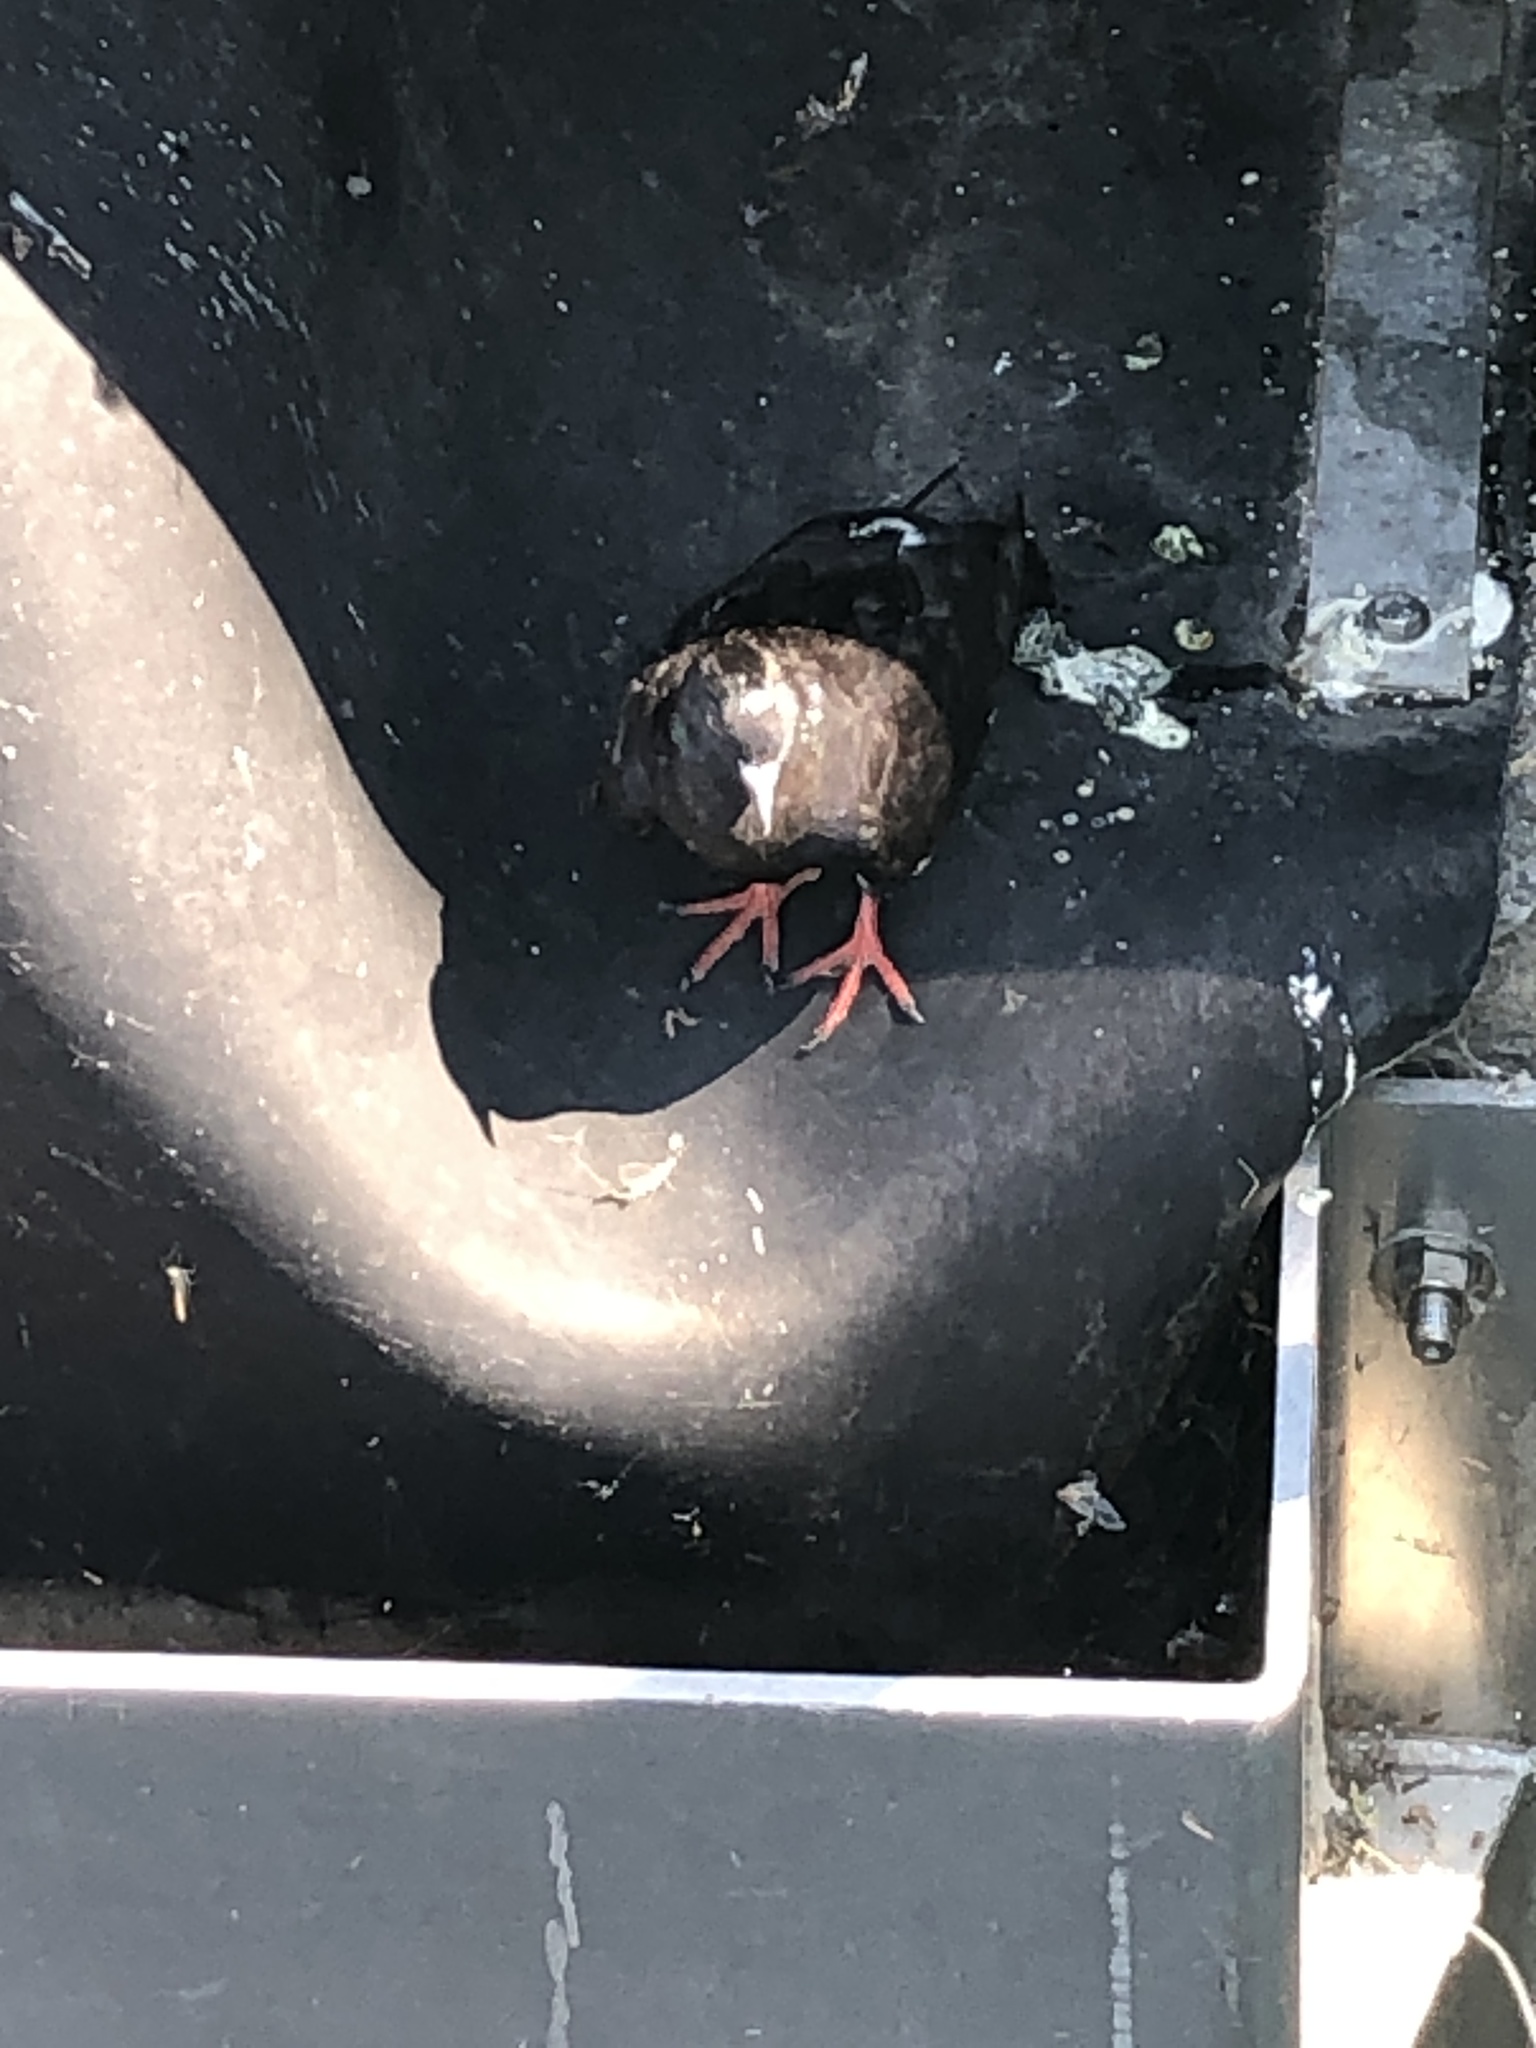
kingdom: Animalia
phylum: Chordata
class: Aves
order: Columbiformes
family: Columbidae
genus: Columba
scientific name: Columba livia
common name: Rock pigeon
